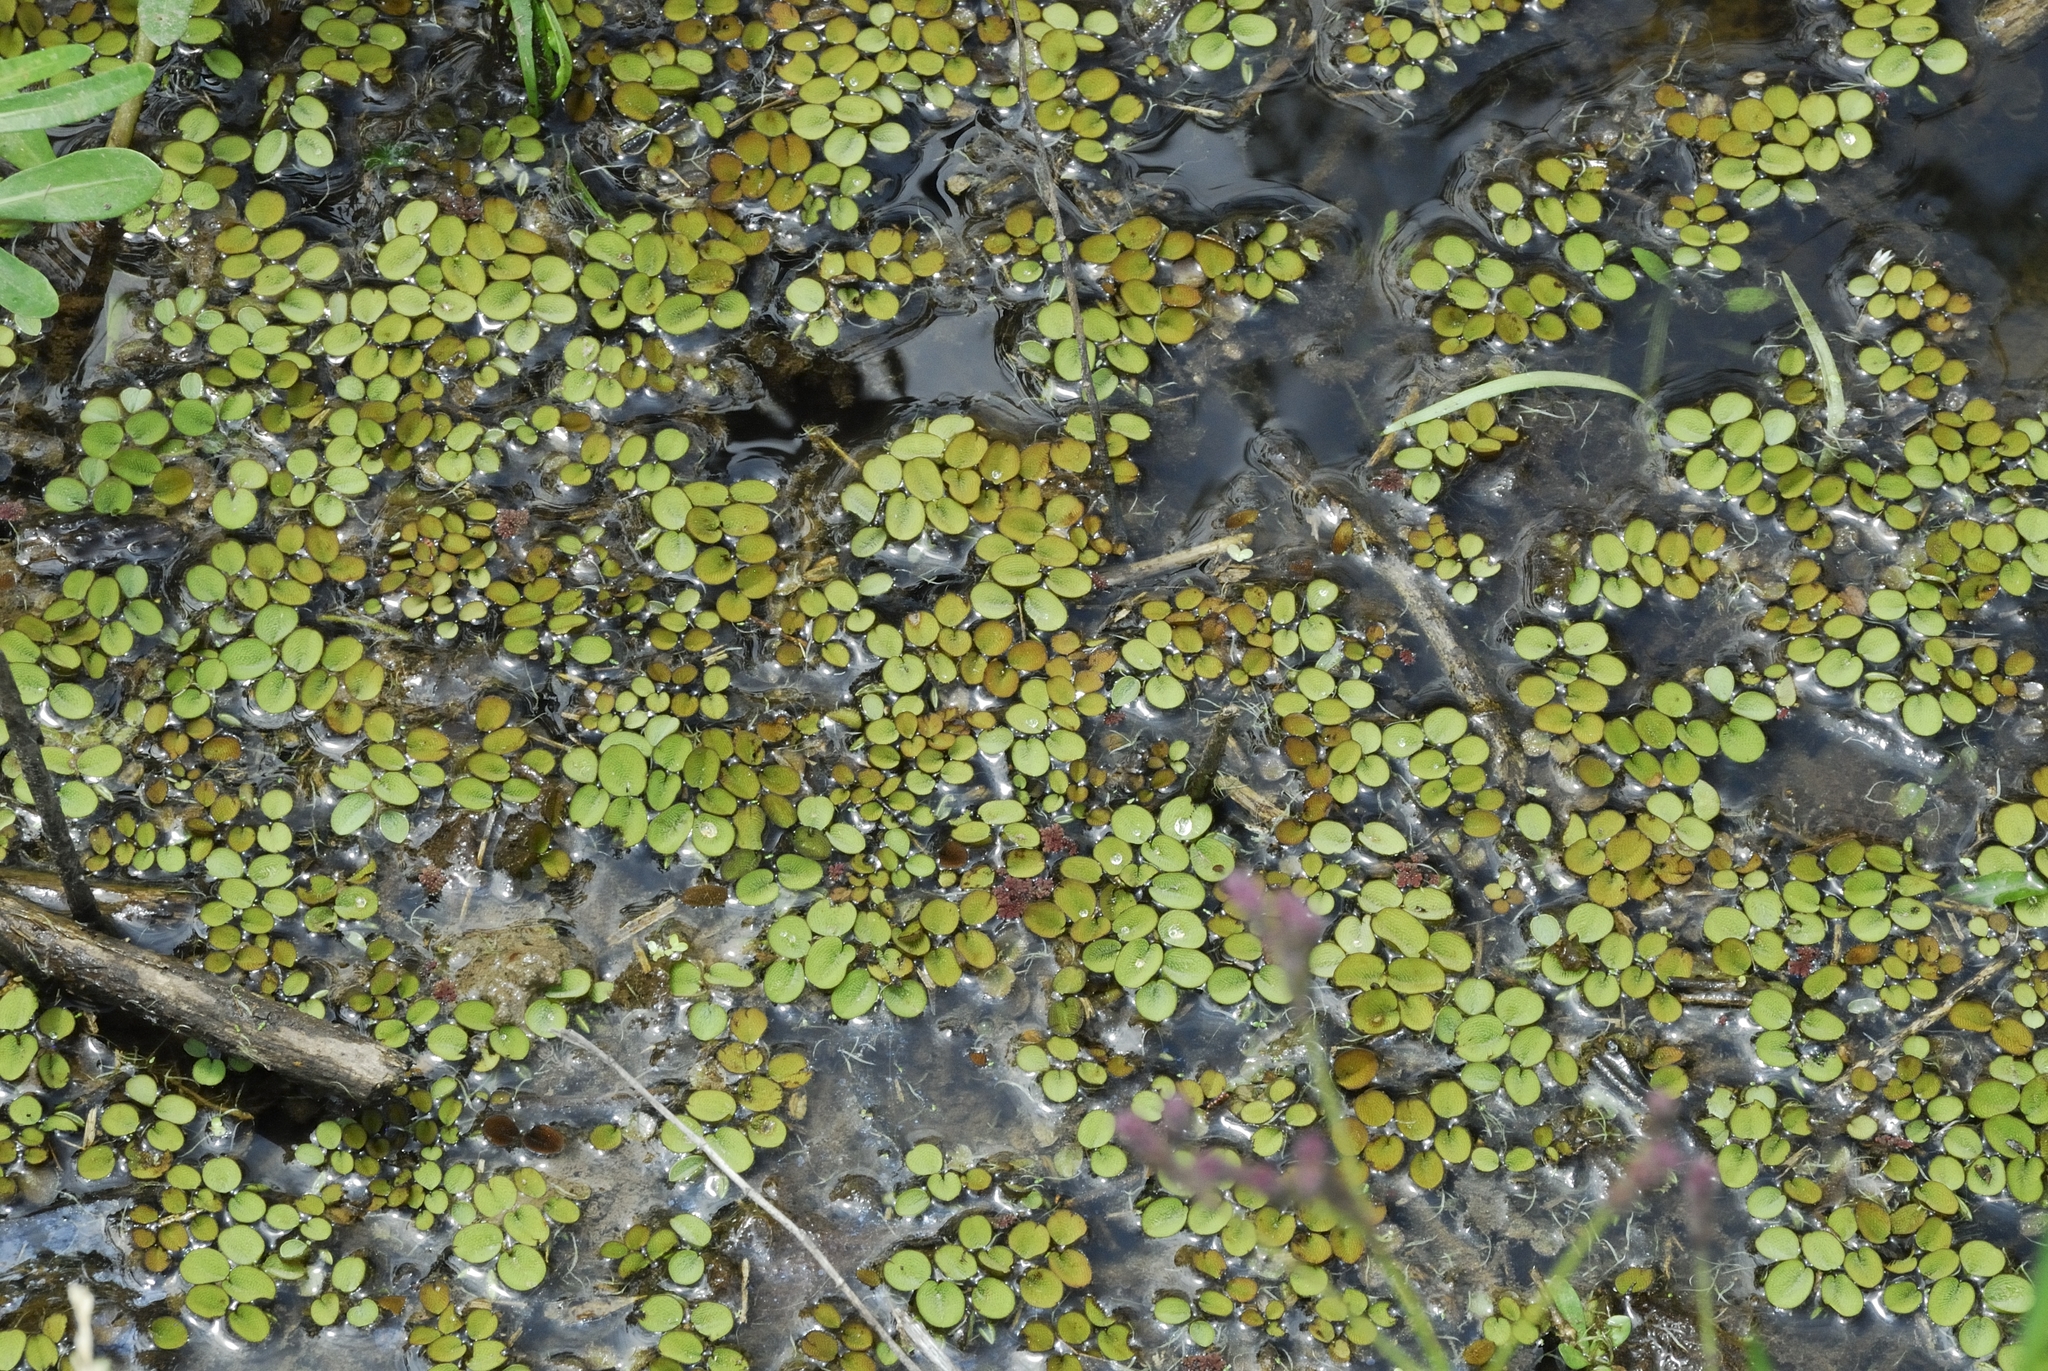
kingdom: Plantae
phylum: Tracheophyta
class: Polypodiopsida
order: Salviniales
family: Salviniaceae
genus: Salvinia
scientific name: Salvinia minima
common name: Water spangles
